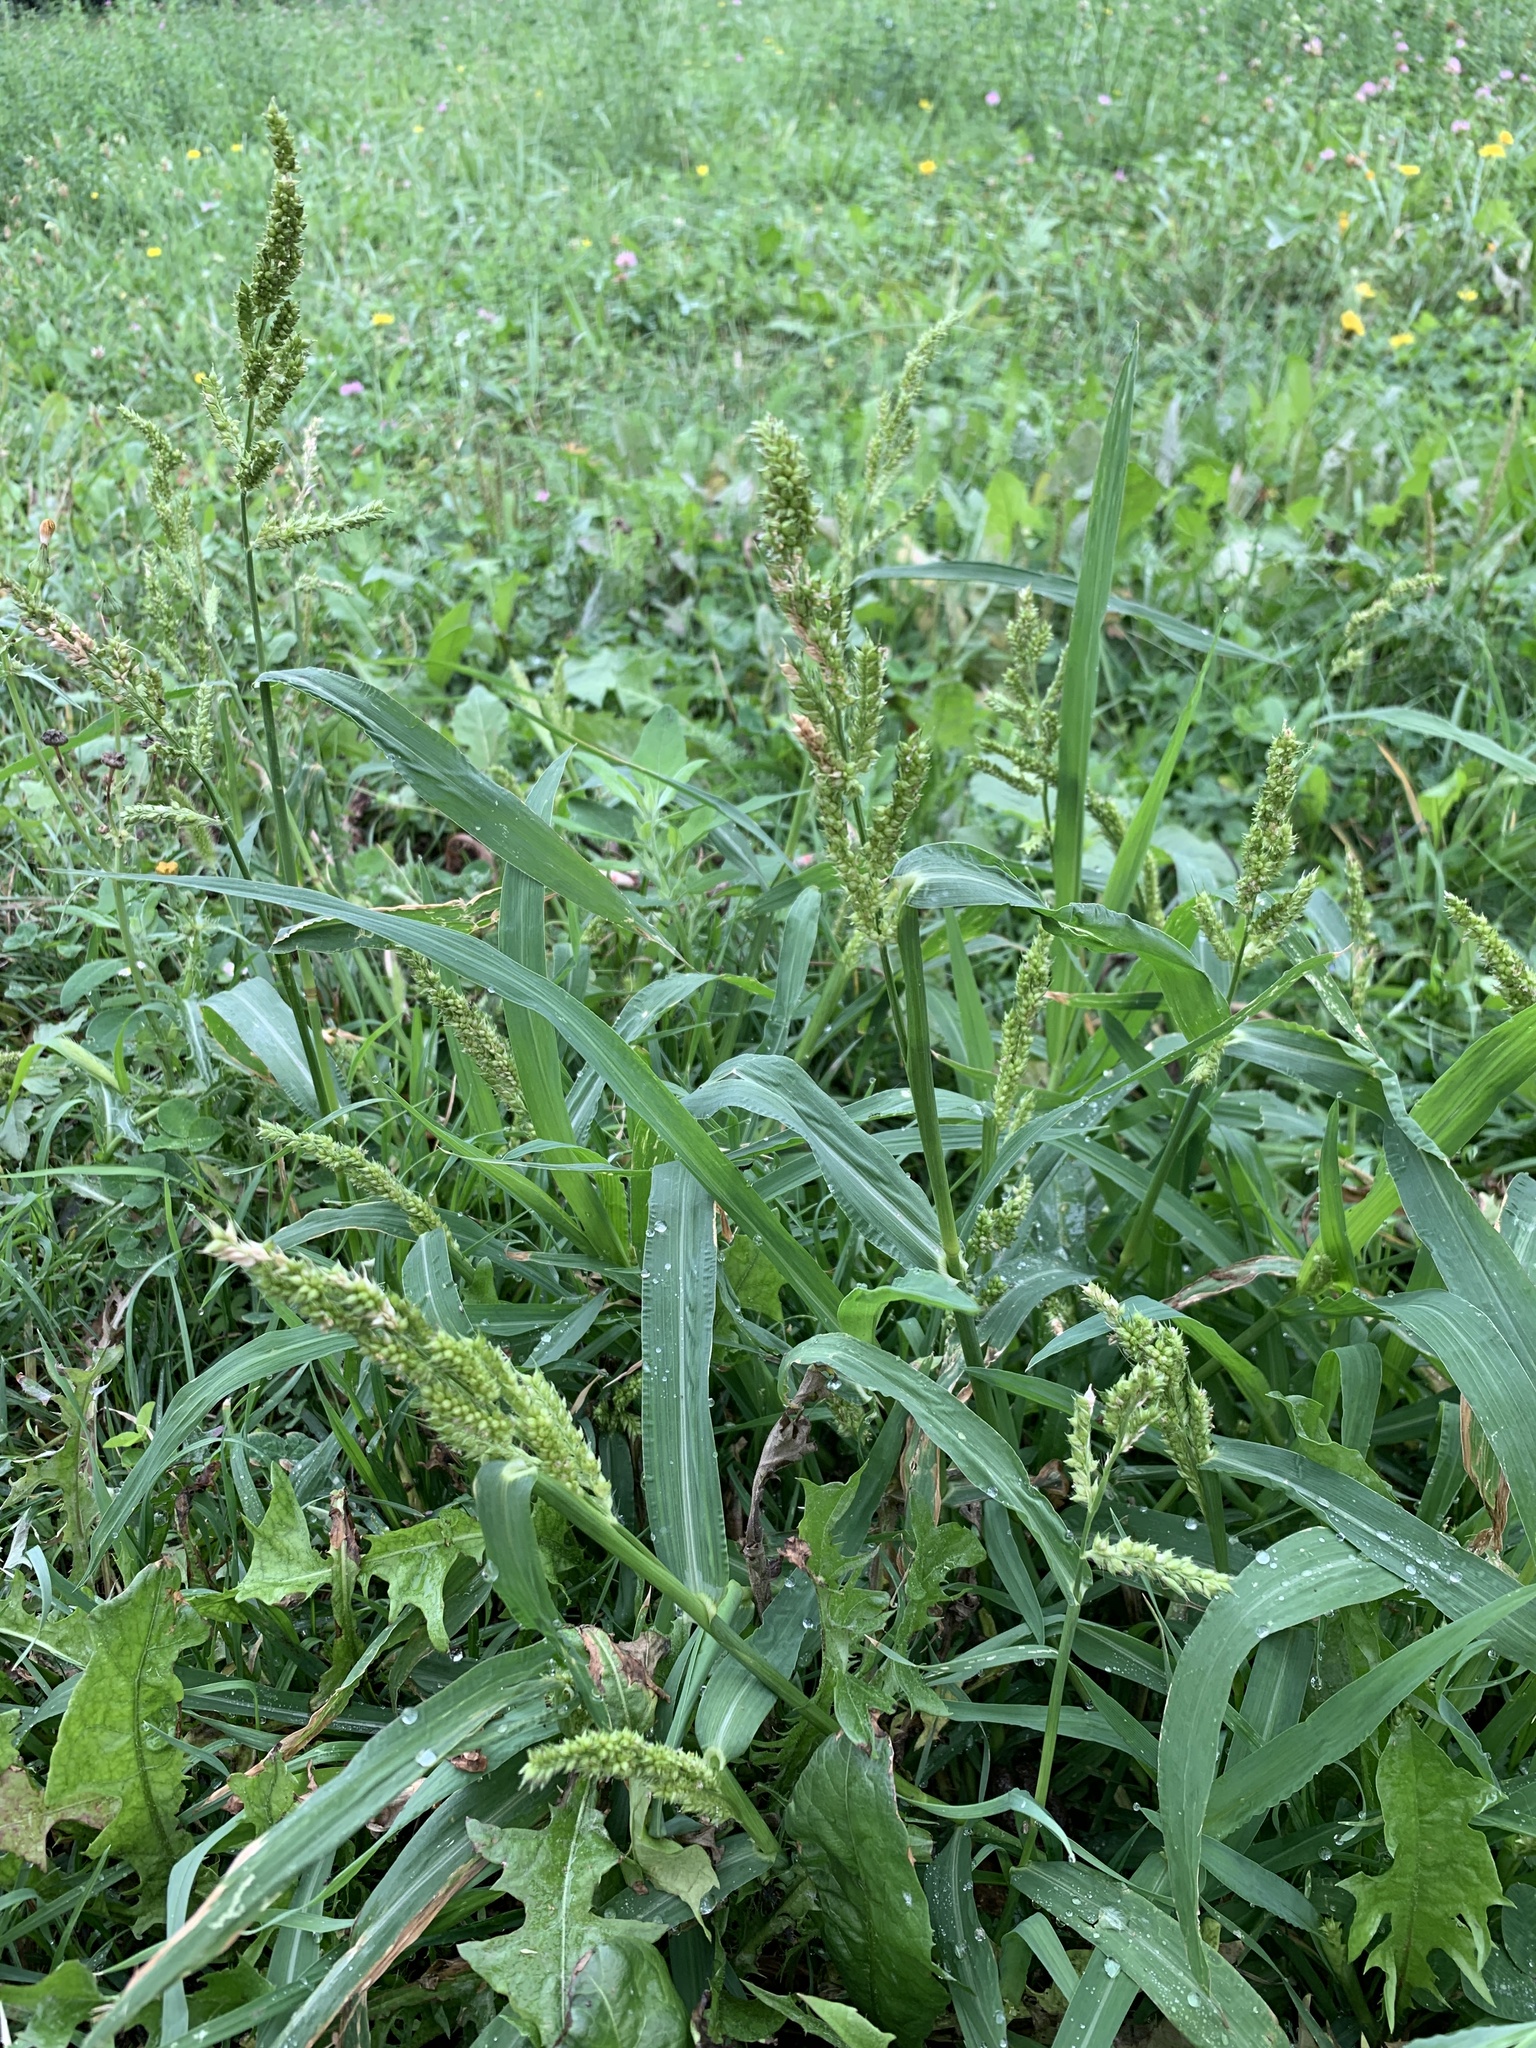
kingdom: Plantae
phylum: Tracheophyta
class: Liliopsida
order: Poales
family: Poaceae
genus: Echinochloa
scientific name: Echinochloa crus-galli
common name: Cockspur
